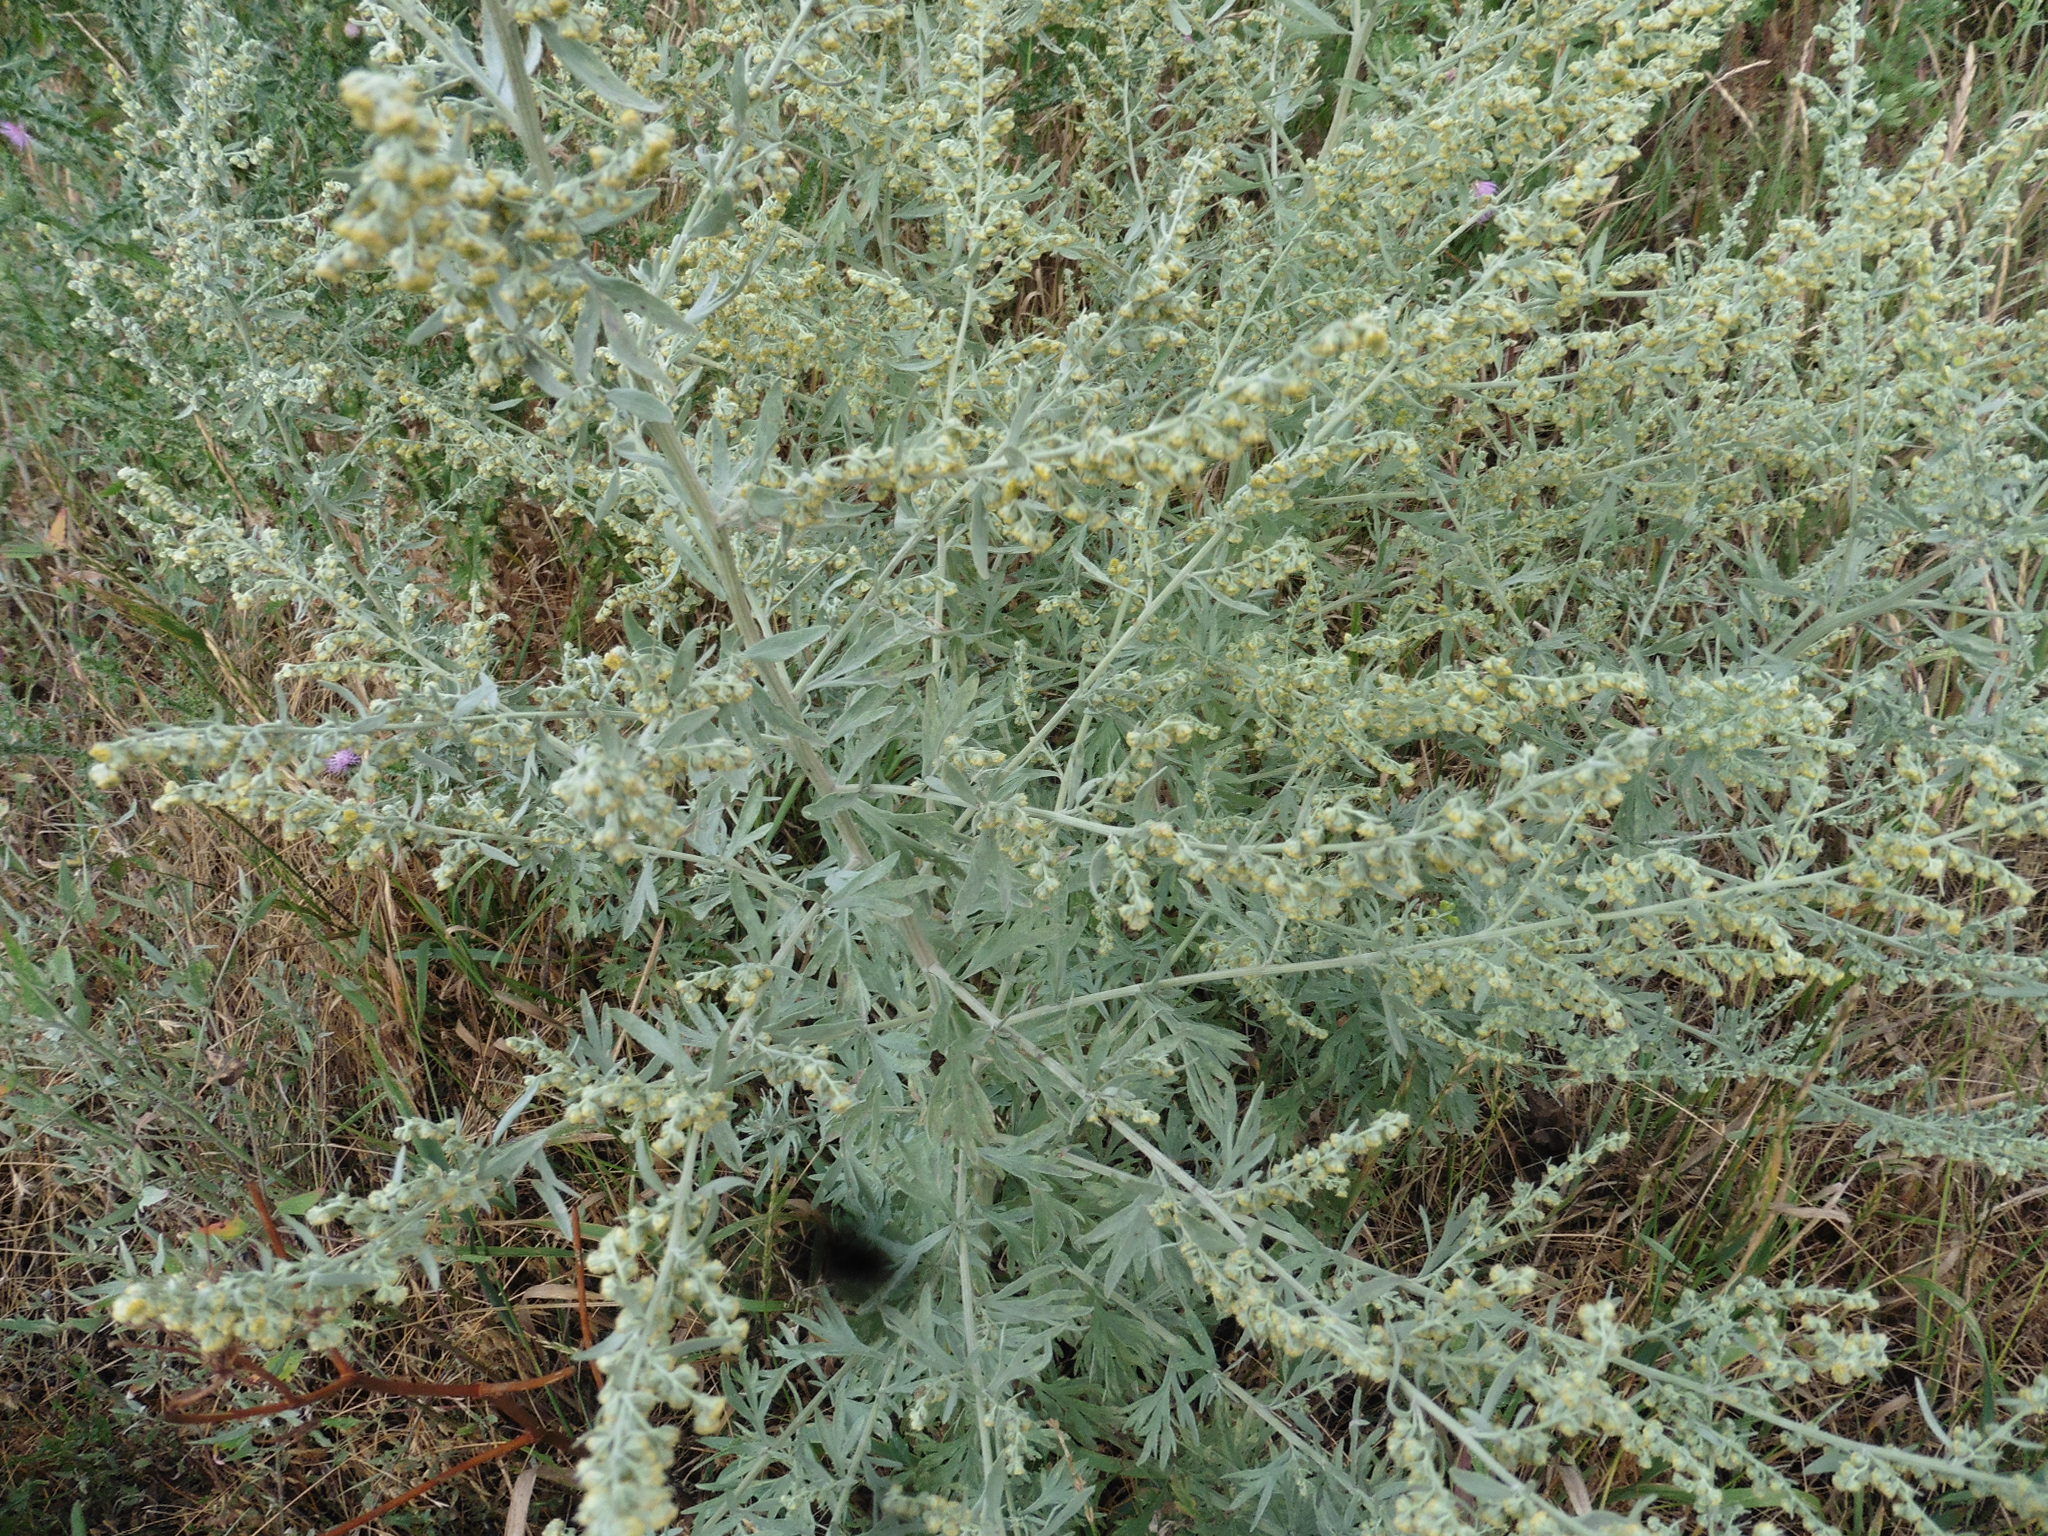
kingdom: Plantae
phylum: Tracheophyta
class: Magnoliopsida
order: Asterales
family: Asteraceae
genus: Artemisia
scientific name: Artemisia absinthium
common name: Wormwood
